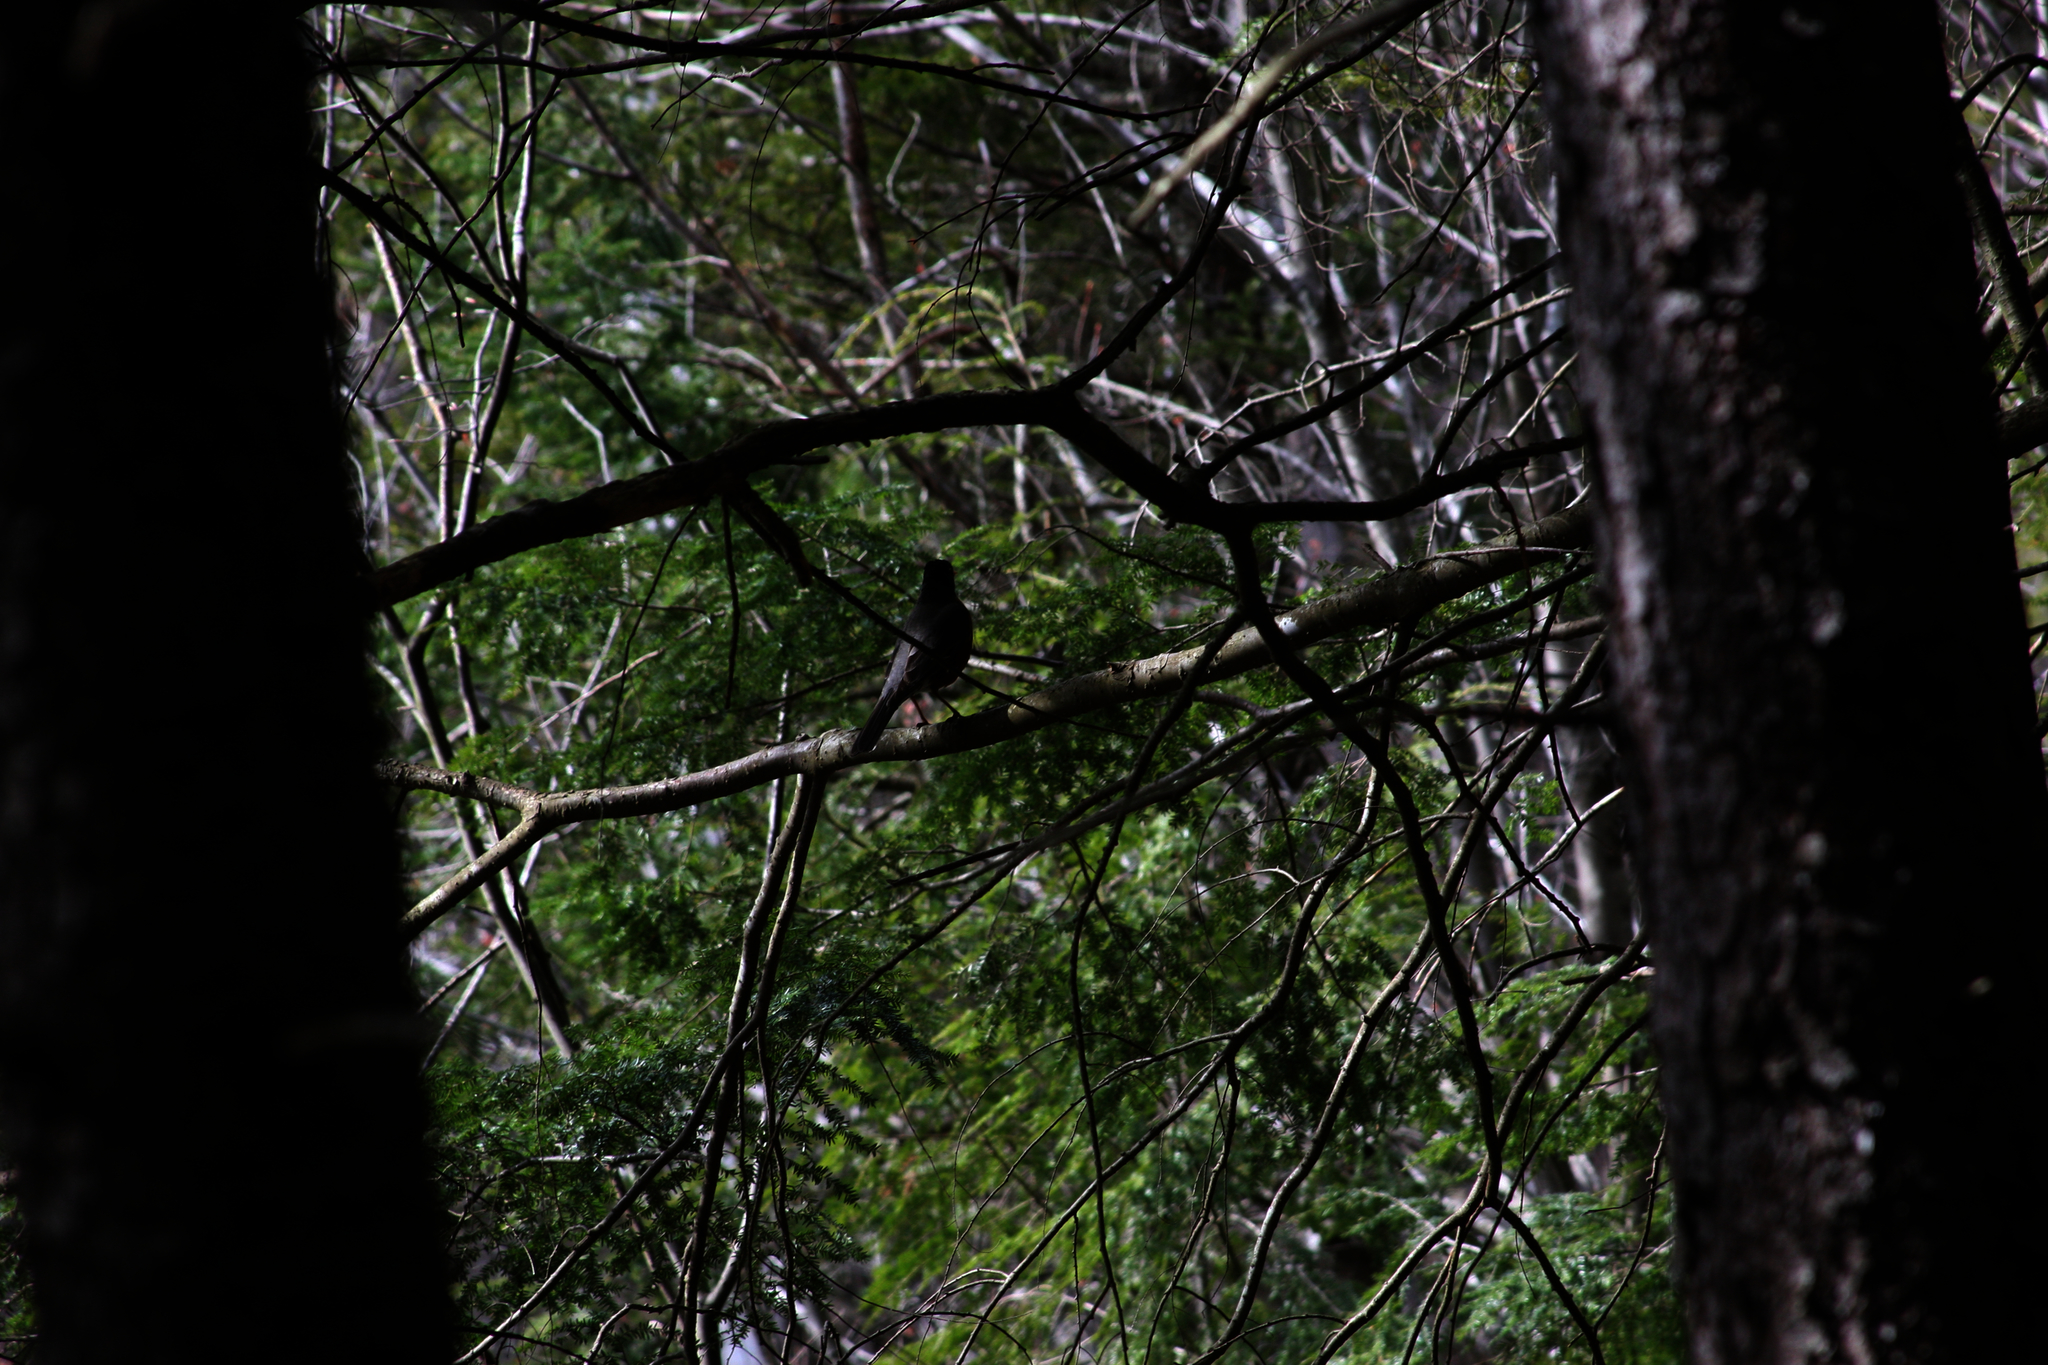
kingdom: Animalia
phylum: Chordata
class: Aves
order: Passeriformes
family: Turdidae
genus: Turdus
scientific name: Turdus migratorius
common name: American robin
